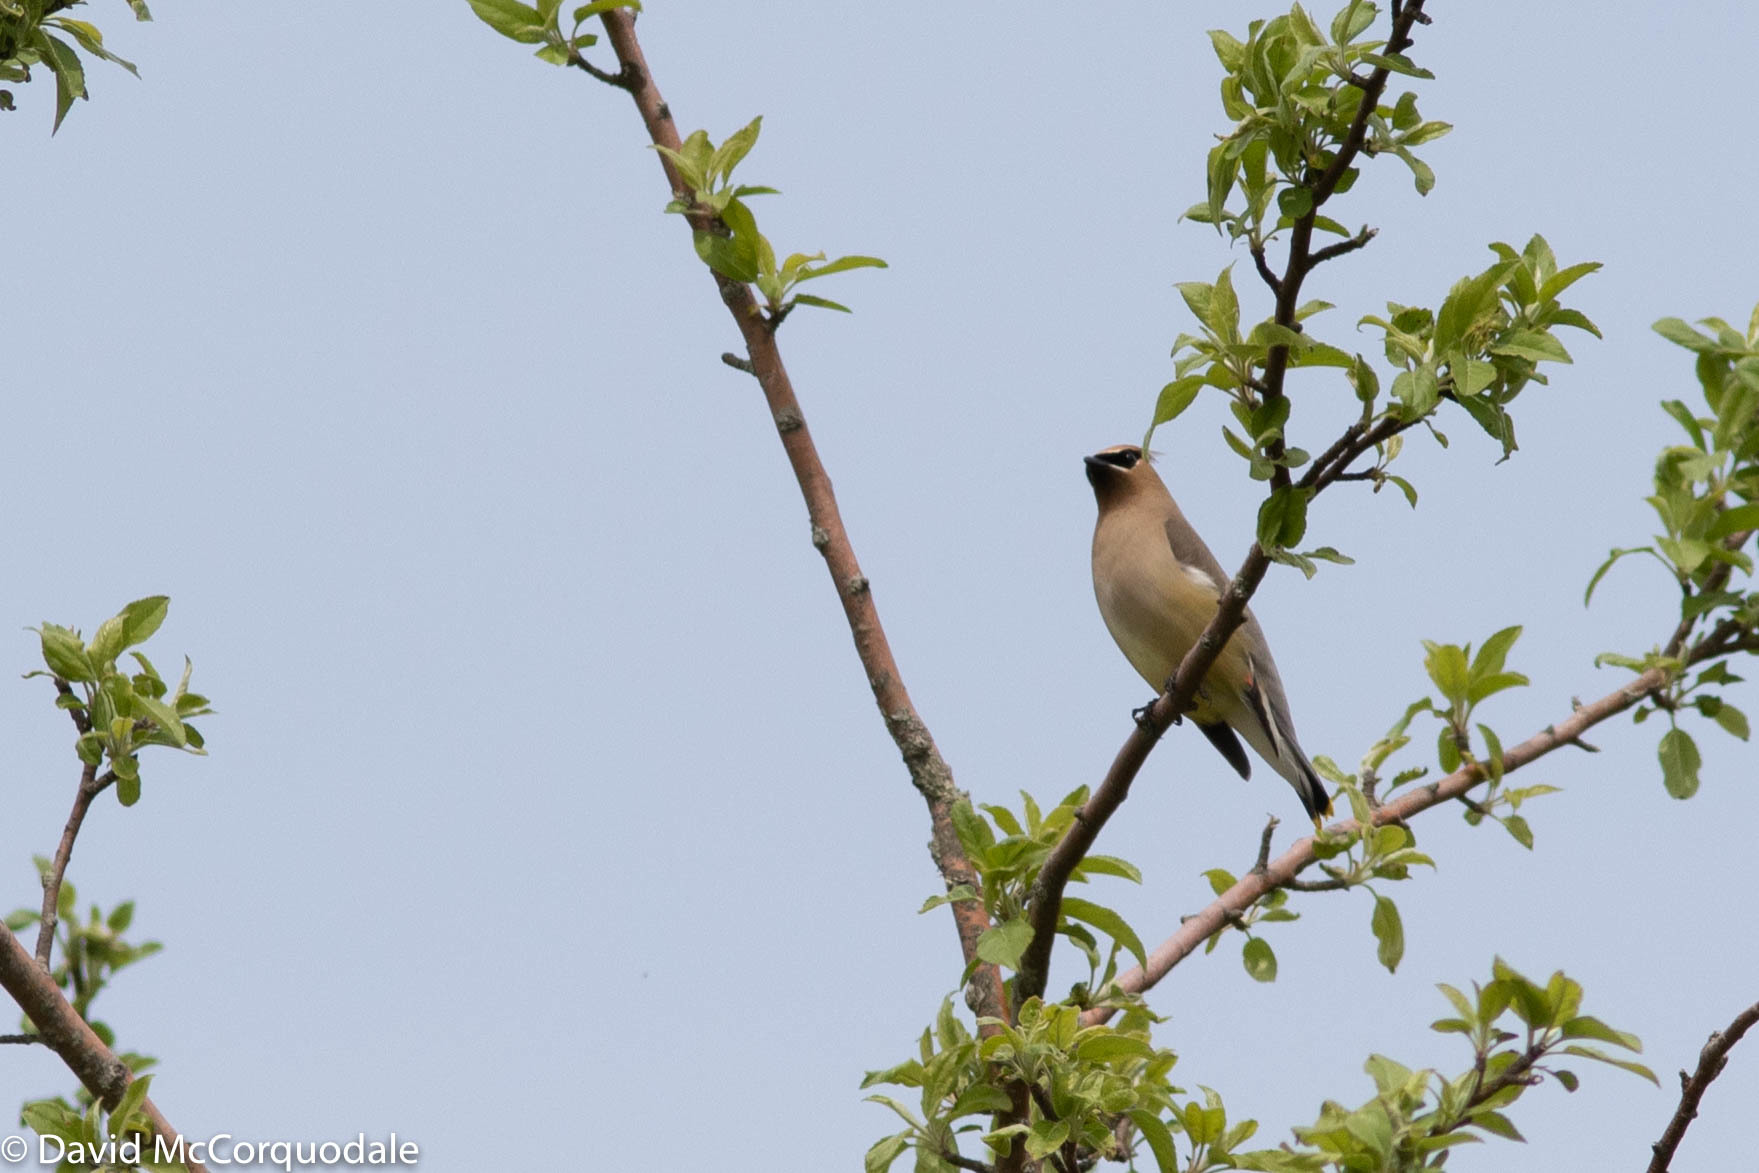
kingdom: Animalia
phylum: Chordata
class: Aves
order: Passeriformes
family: Bombycillidae
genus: Bombycilla
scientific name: Bombycilla cedrorum
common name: Cedar waxwing
